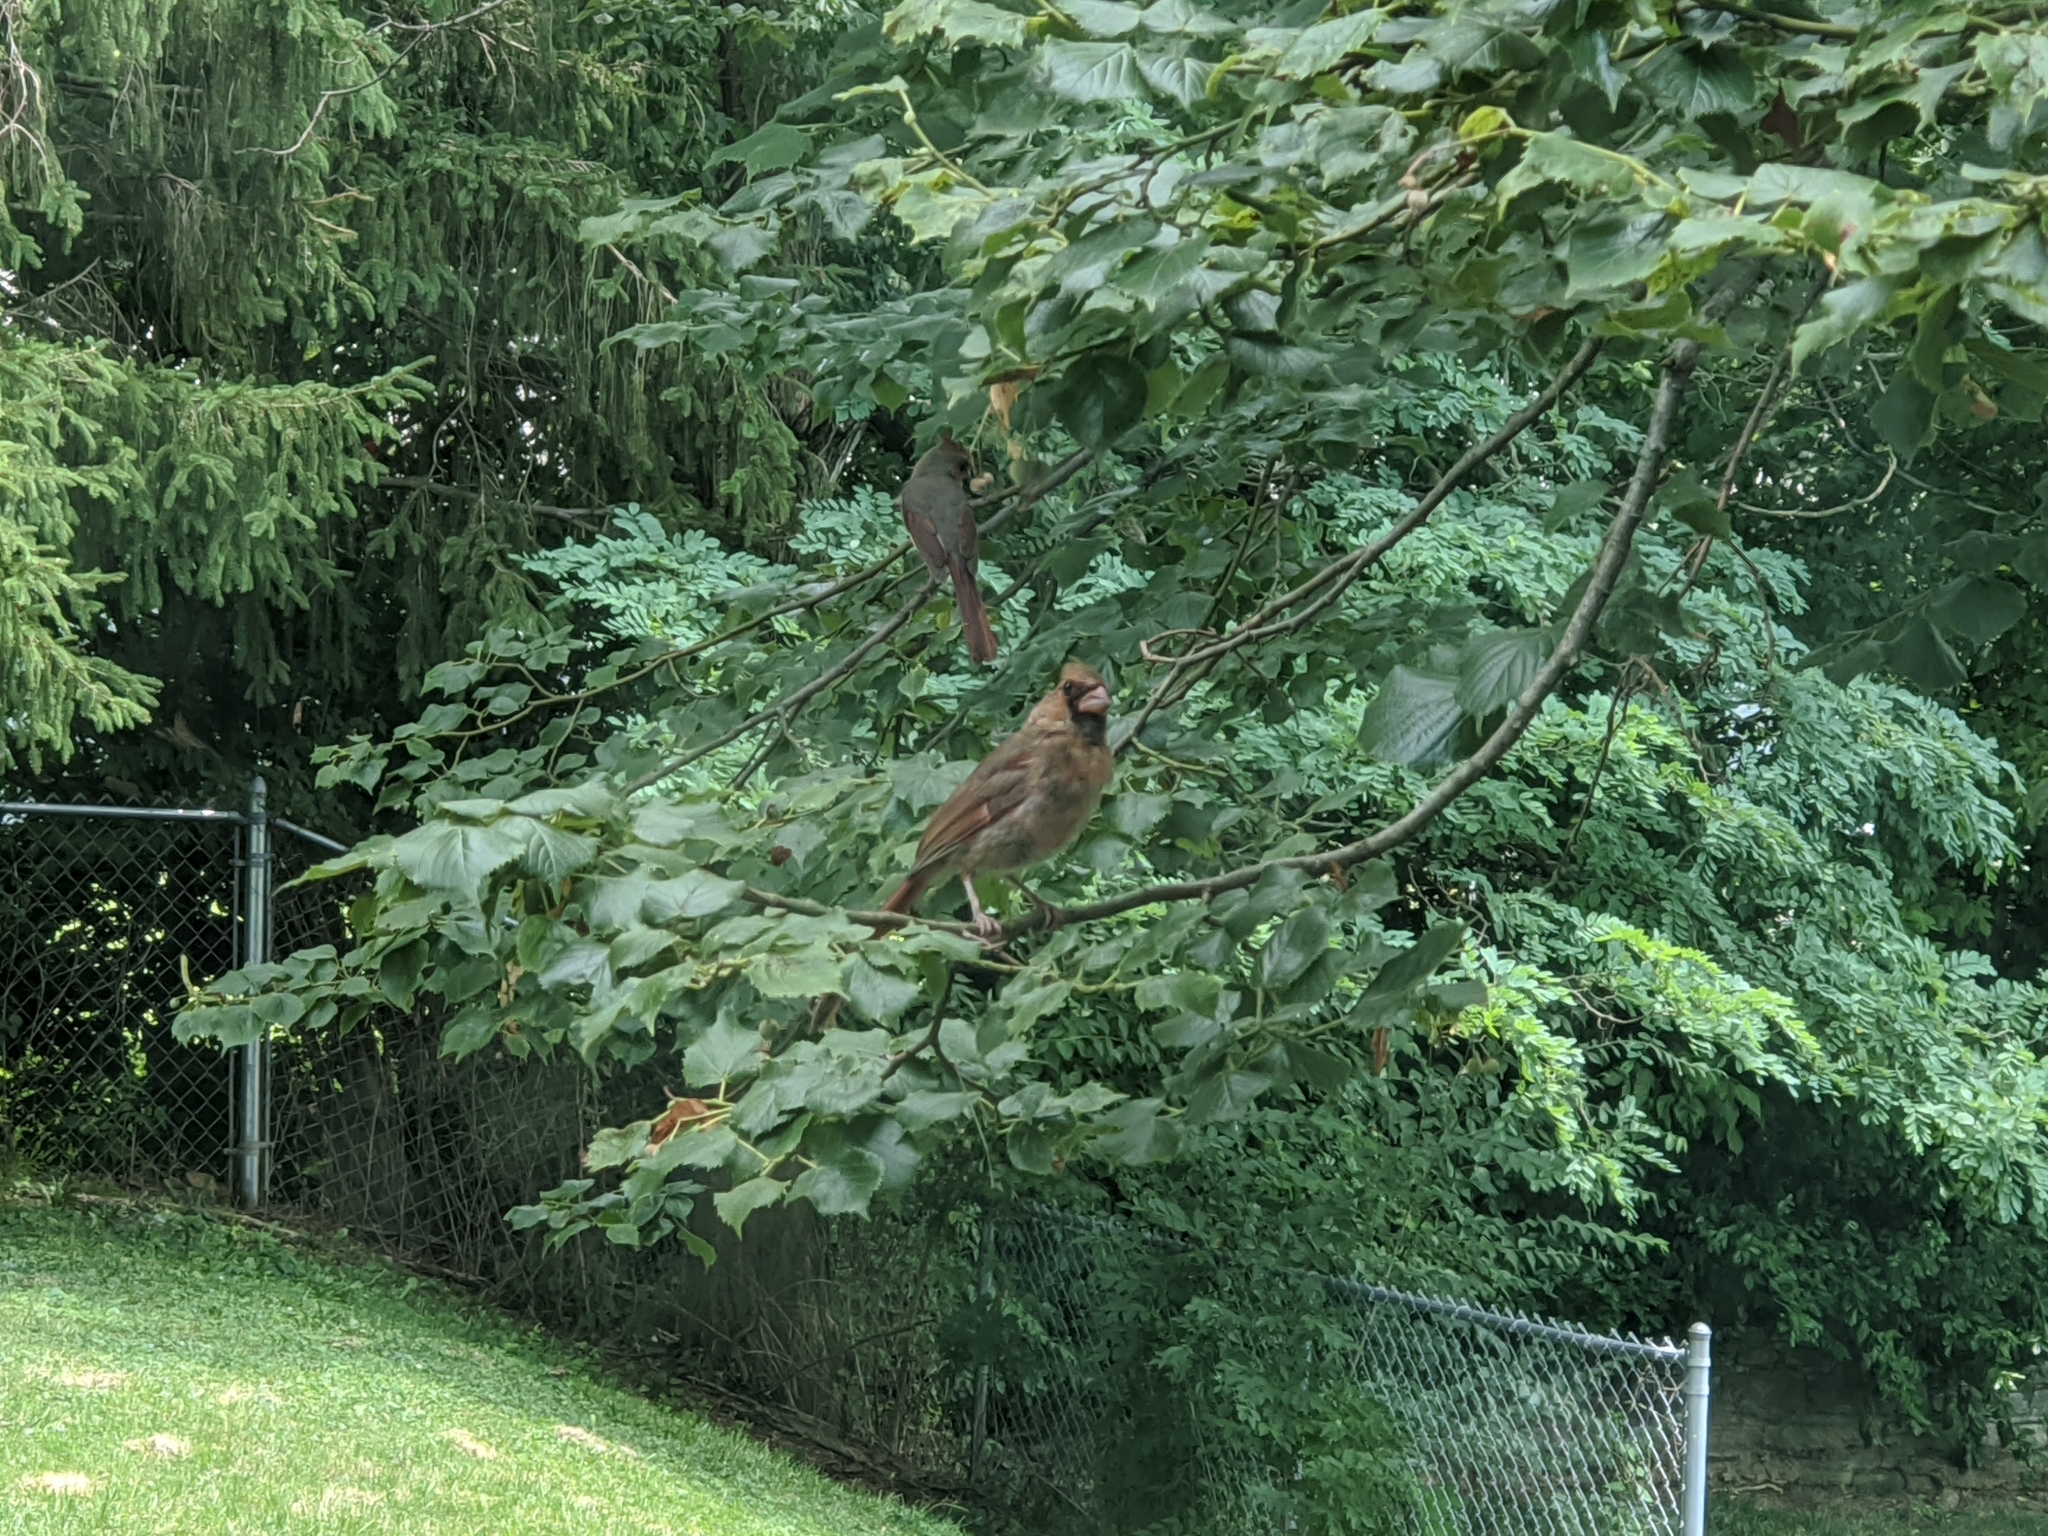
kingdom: Animalia
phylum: Chordata
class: Aves
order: Passeriformes
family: Cardinalidae
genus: Cardinalis
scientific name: Cardinalis cardinalis
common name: Northern cardinal
